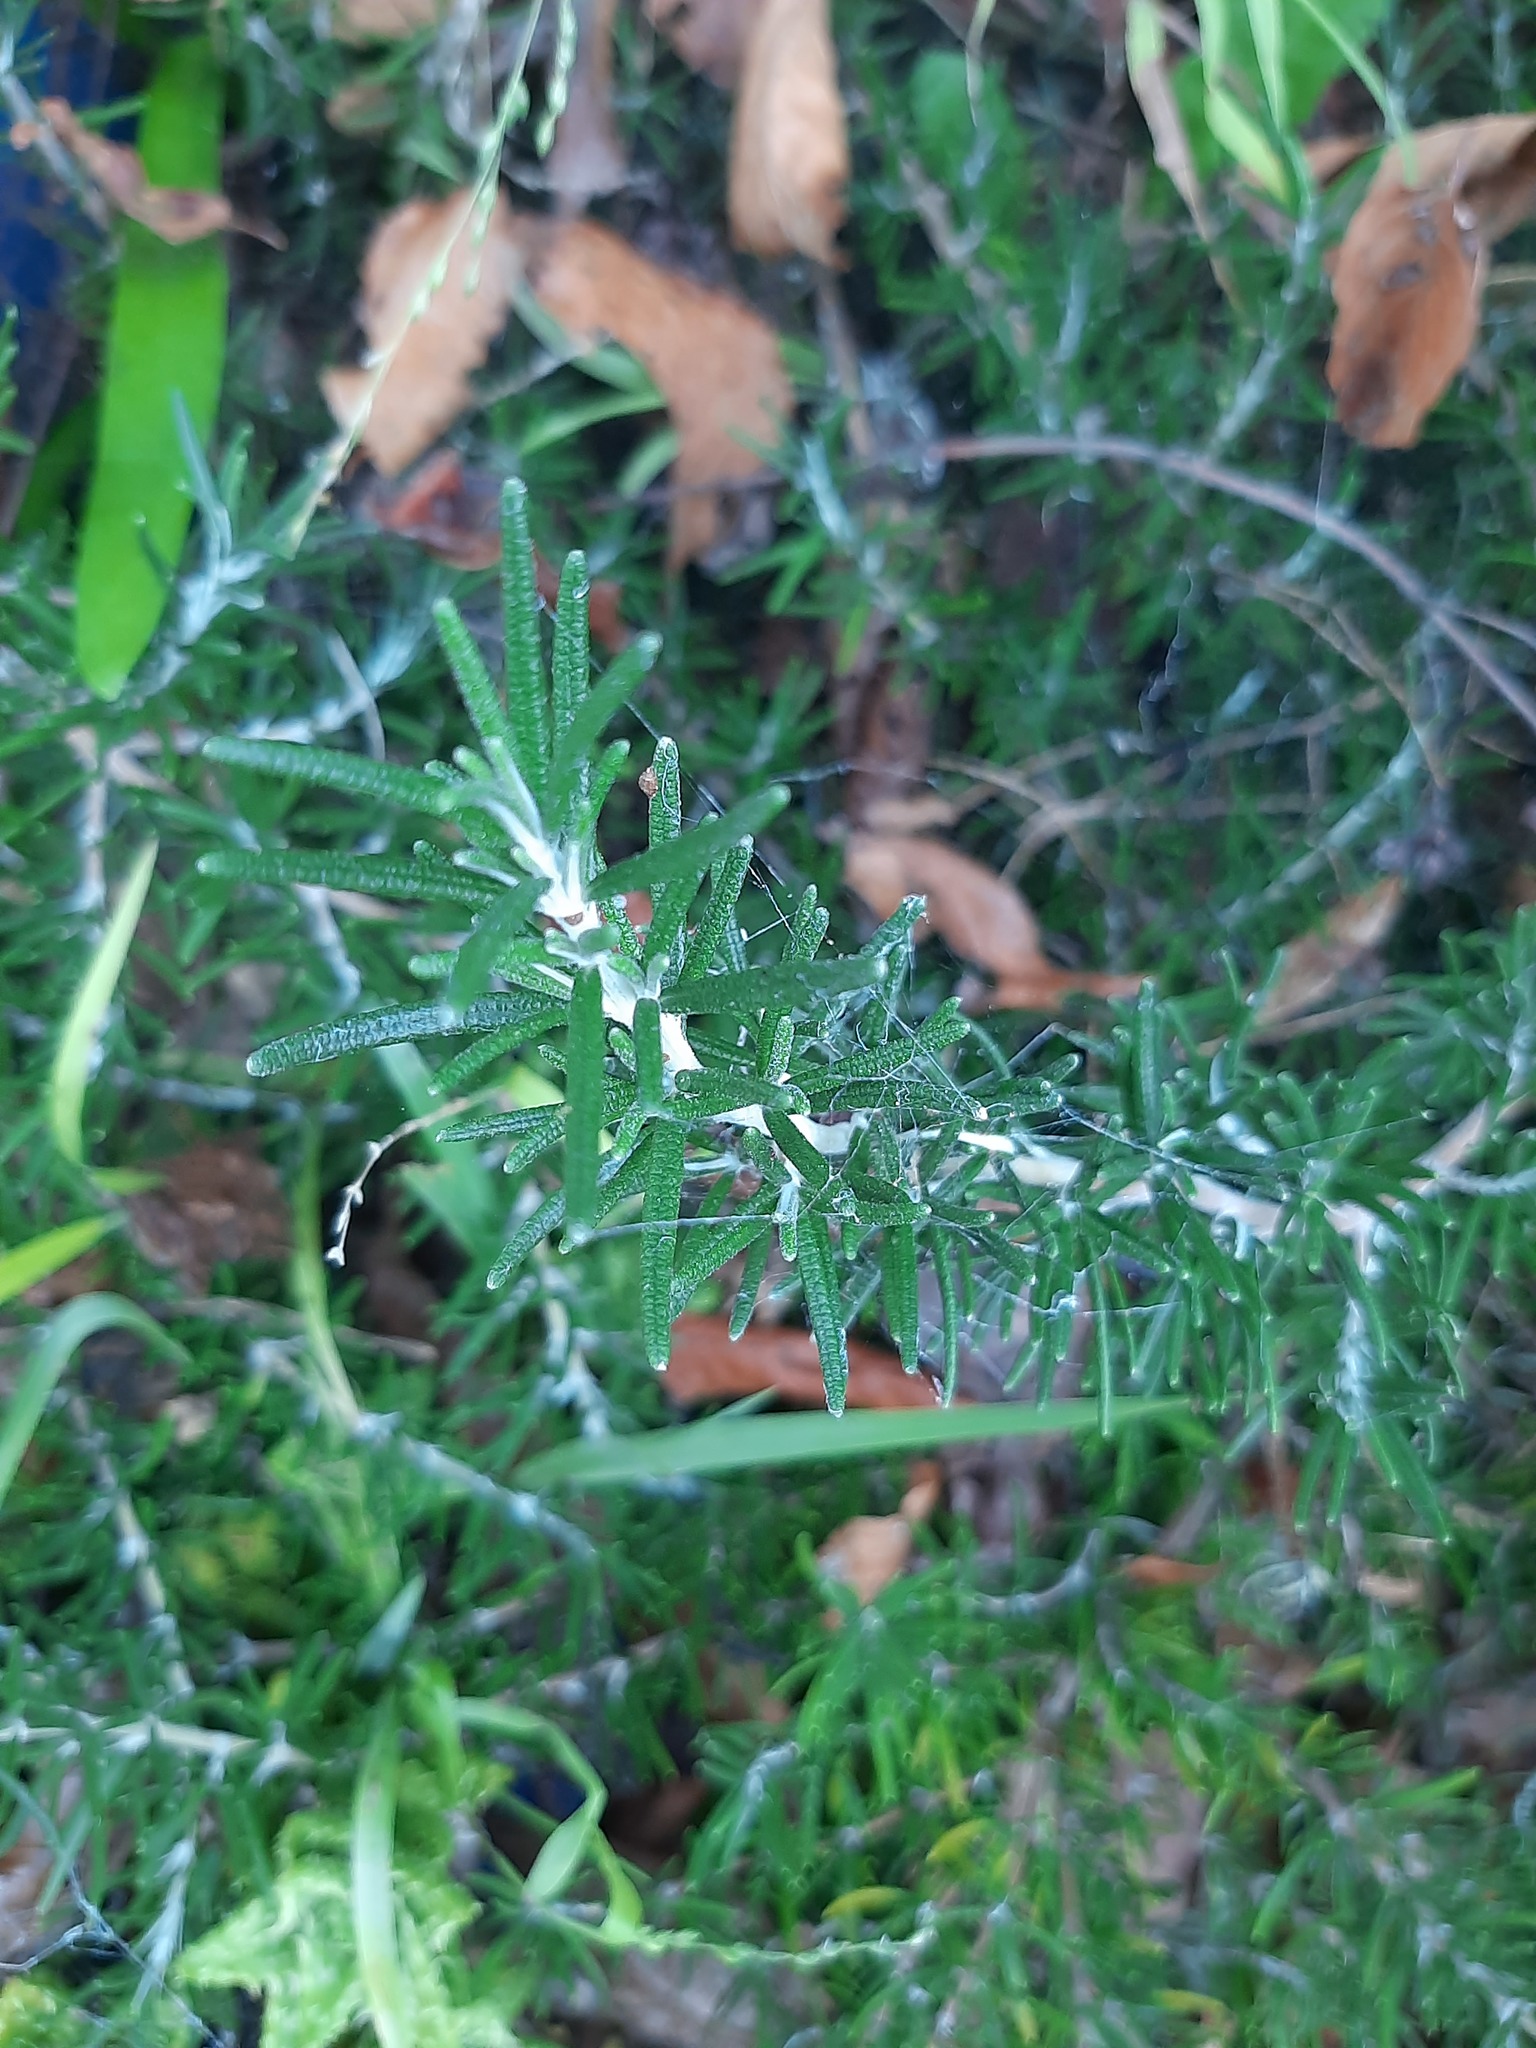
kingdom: Plantae
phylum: Tracheophyta
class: Magnoliopsida
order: Lamiales
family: Lamiaceae
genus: Salvia
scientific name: Salvia rosmarinus
